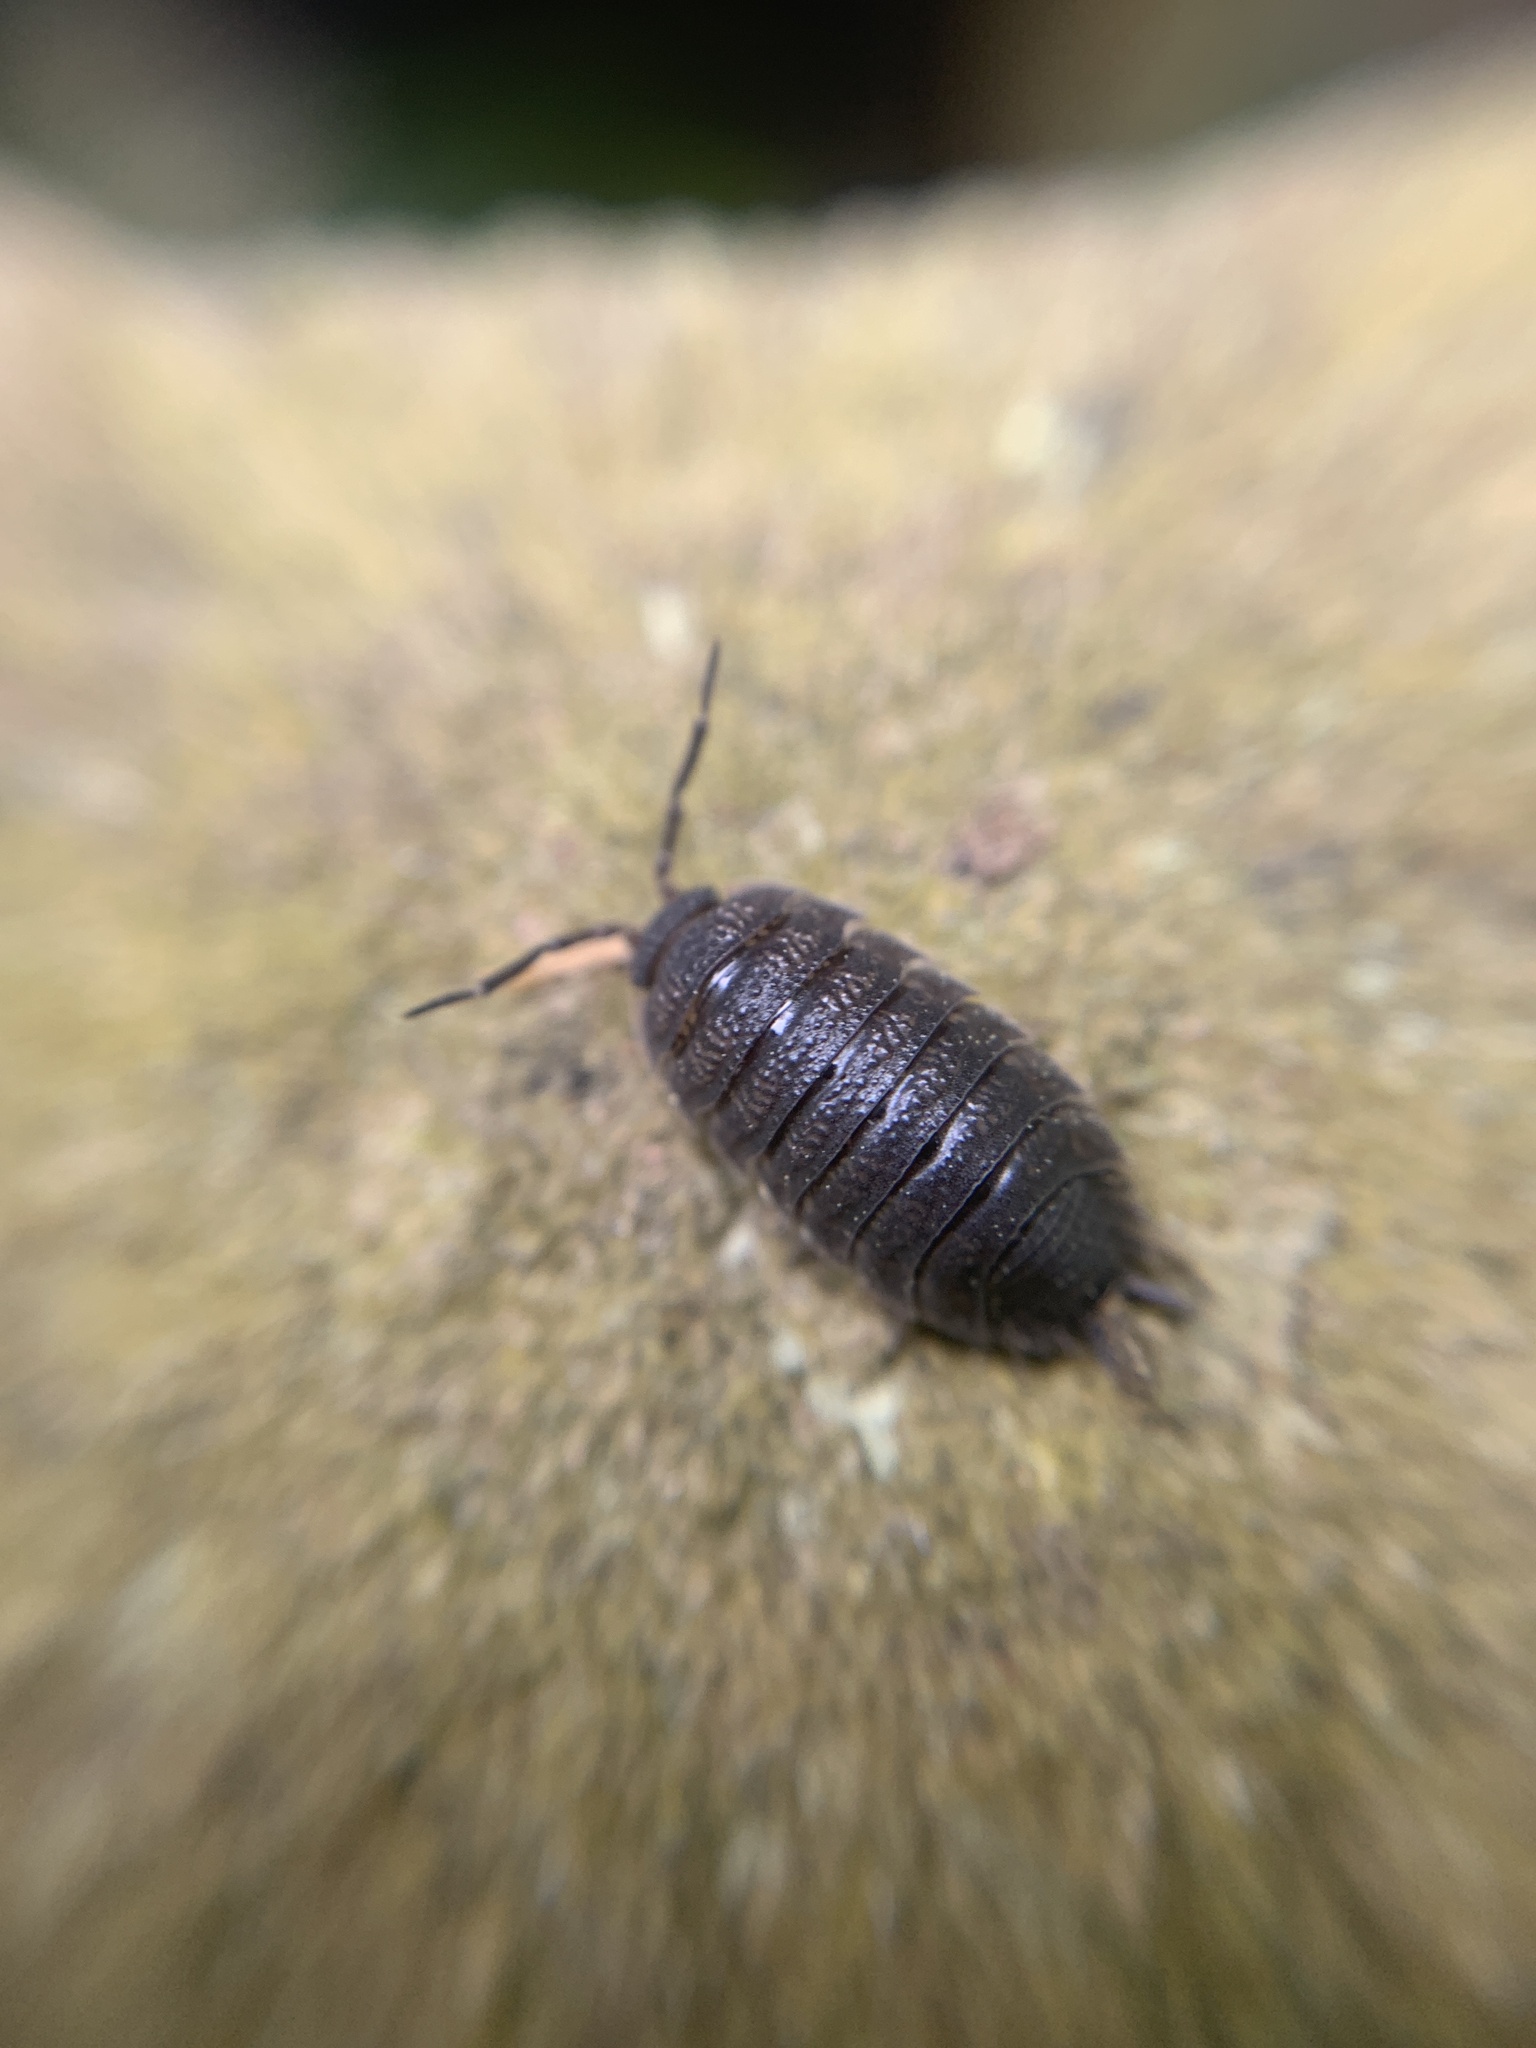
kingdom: Animalia
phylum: Arthropoda
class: Malacostraca
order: Isopoda
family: Porcellionidae
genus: Porcellio
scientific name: Porcellio scaber
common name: Common rough woodlouse
